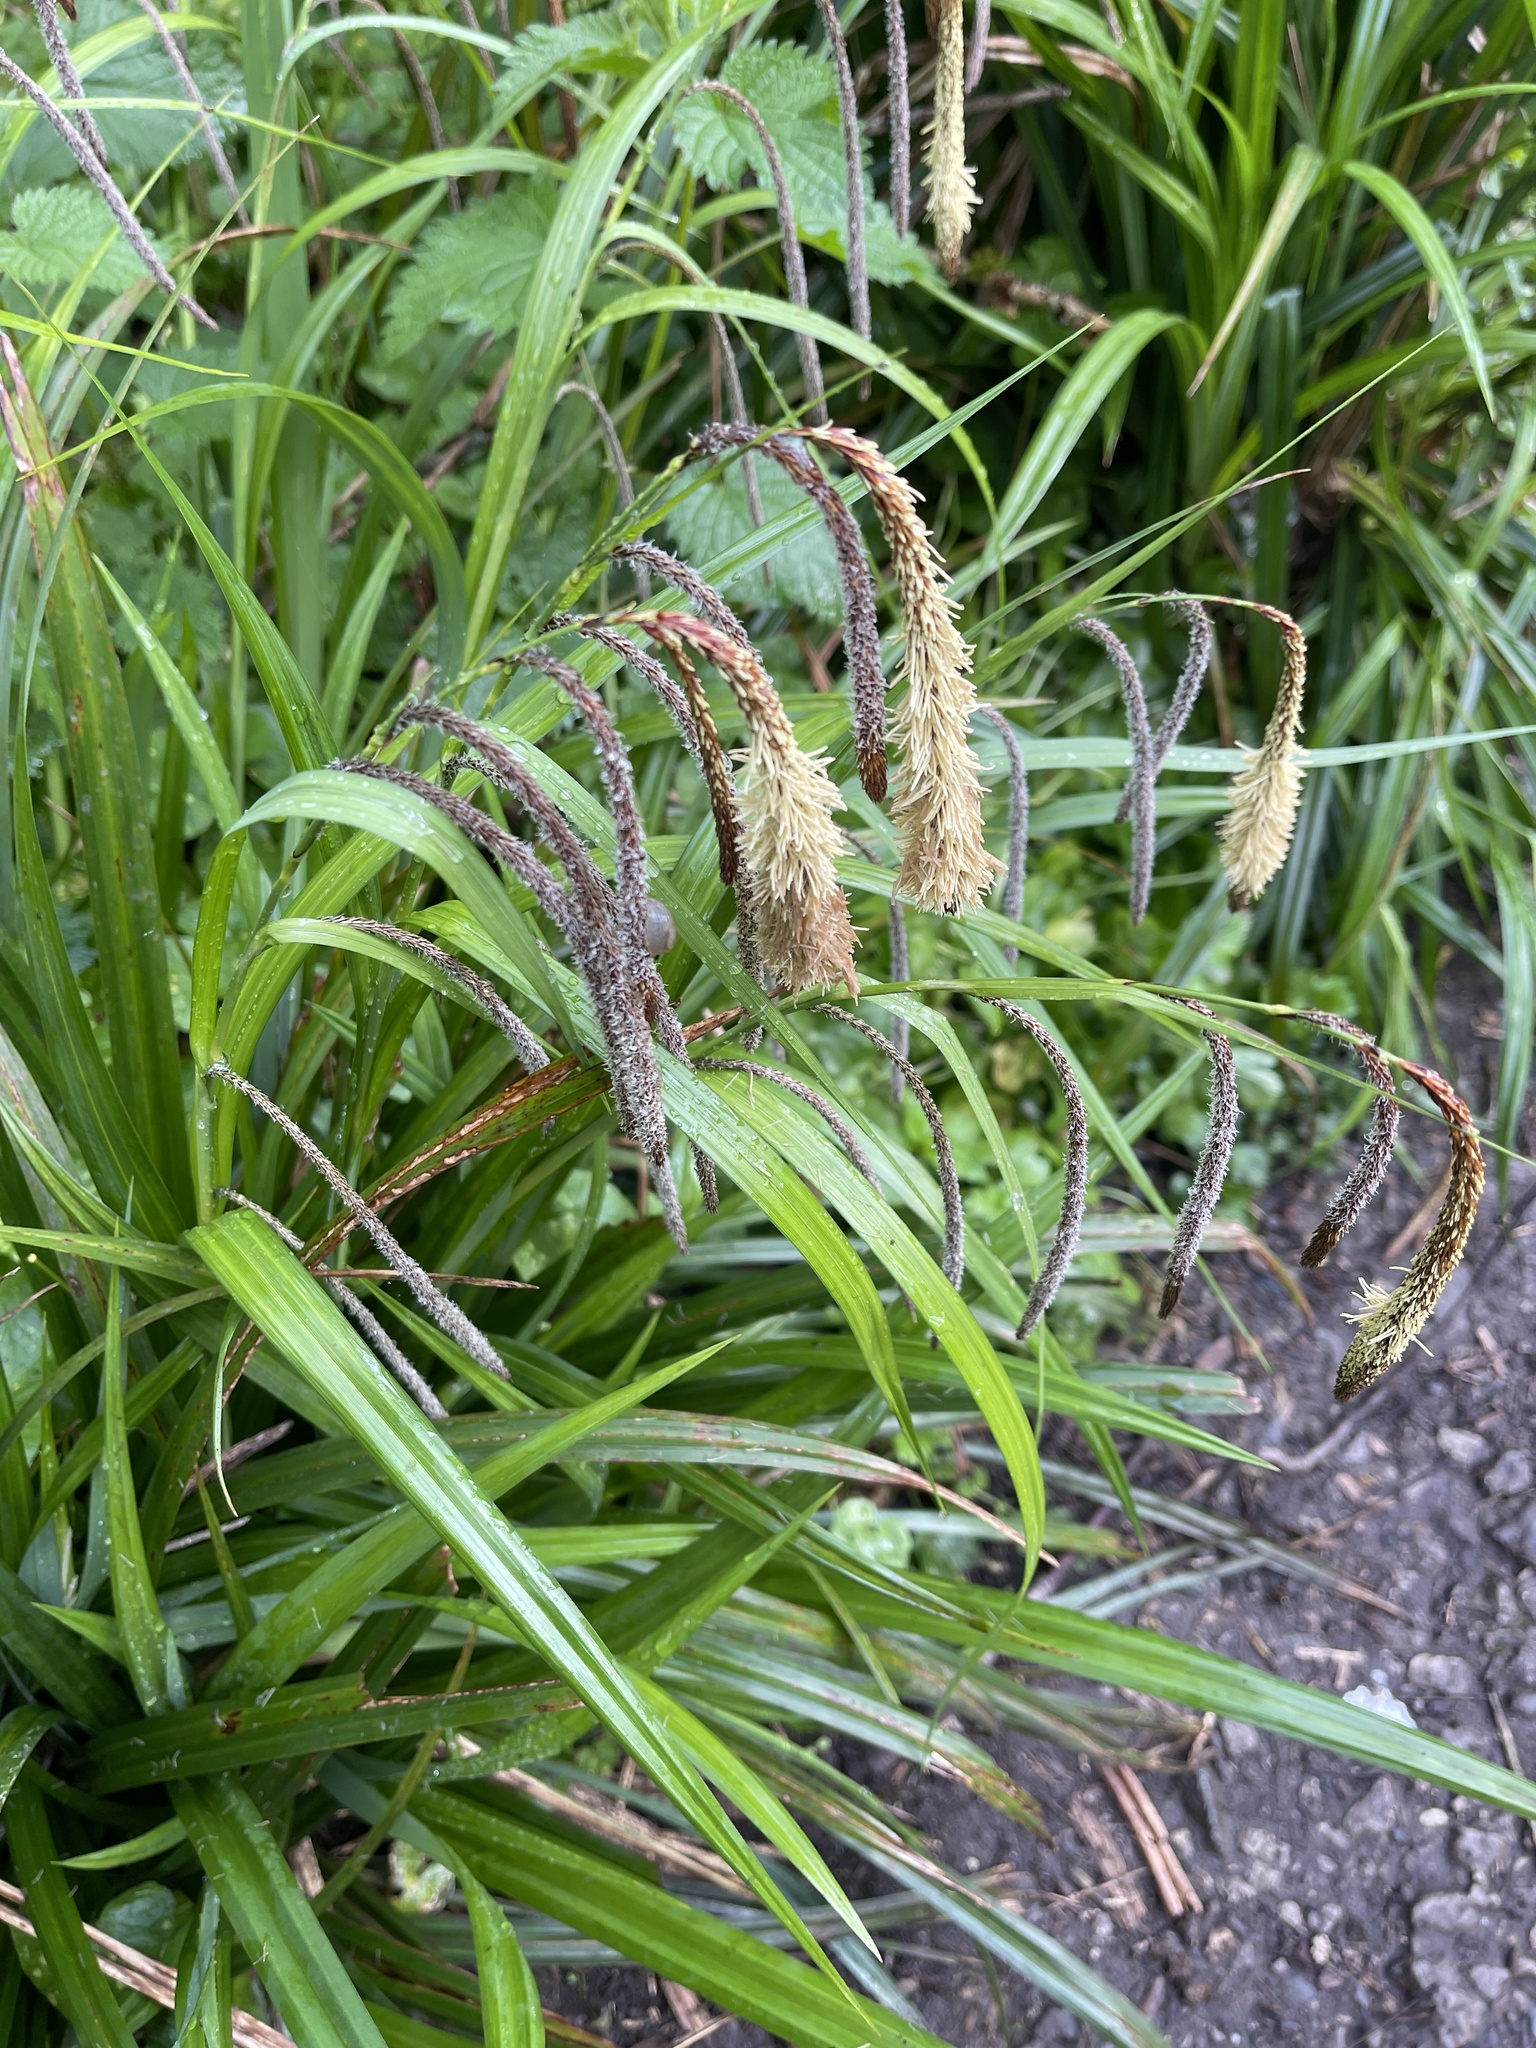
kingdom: Plantae
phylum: Tracheophyta
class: Liliopsida
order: Poales
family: Cyperaceae
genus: Carex
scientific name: Carex pendula
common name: Pendulous sedge
